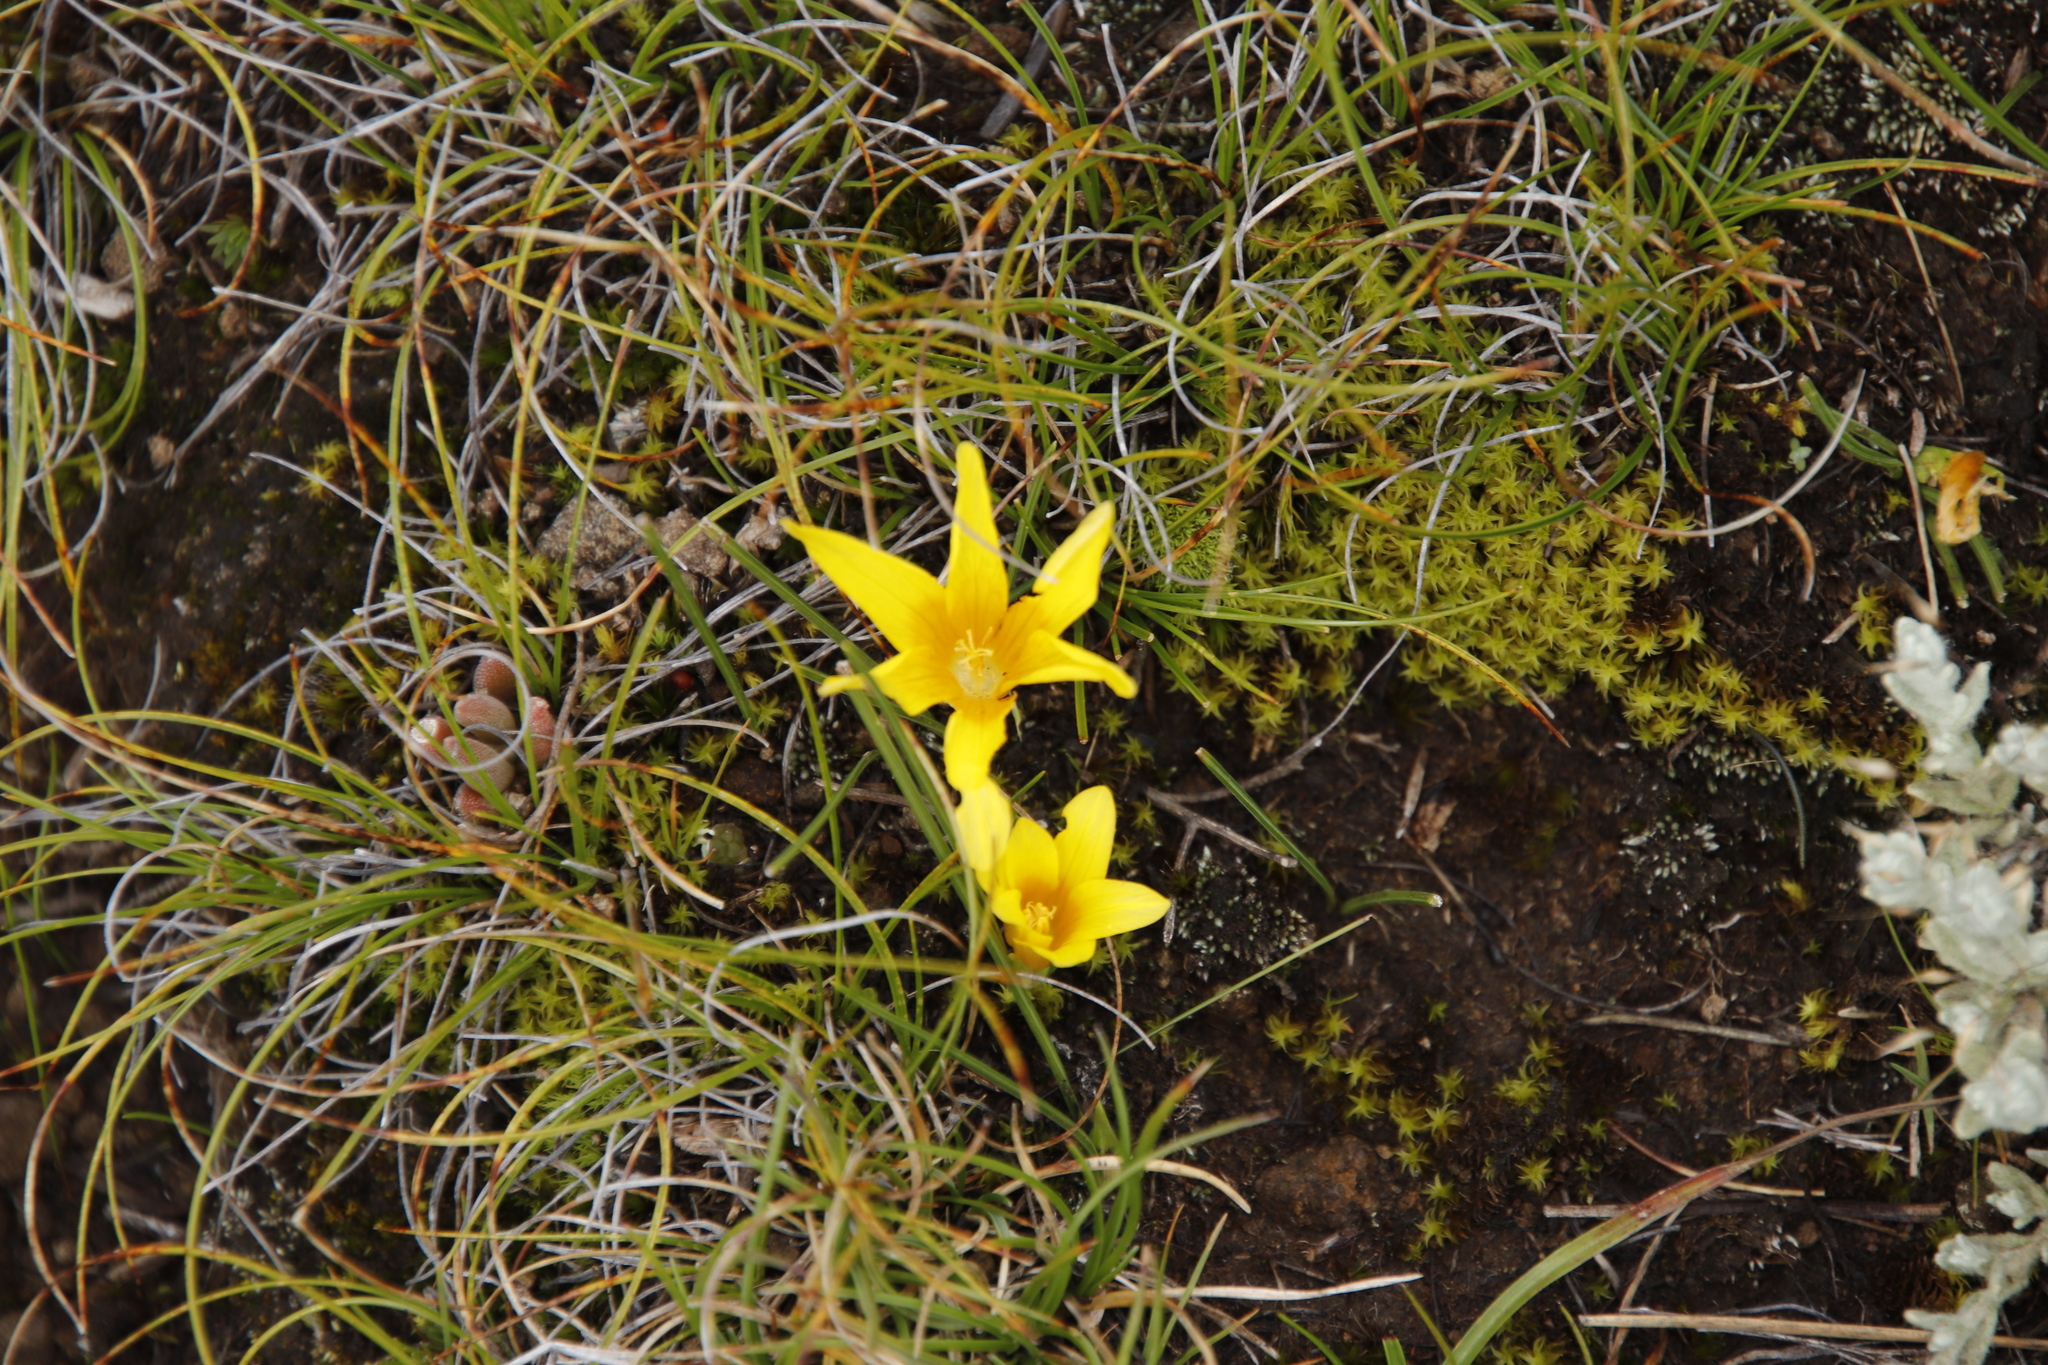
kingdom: Plantae
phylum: Tracheophyta
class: Liliopsida
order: Asparagales
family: Iridaceae
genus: Romulea
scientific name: Romulea macowanii
